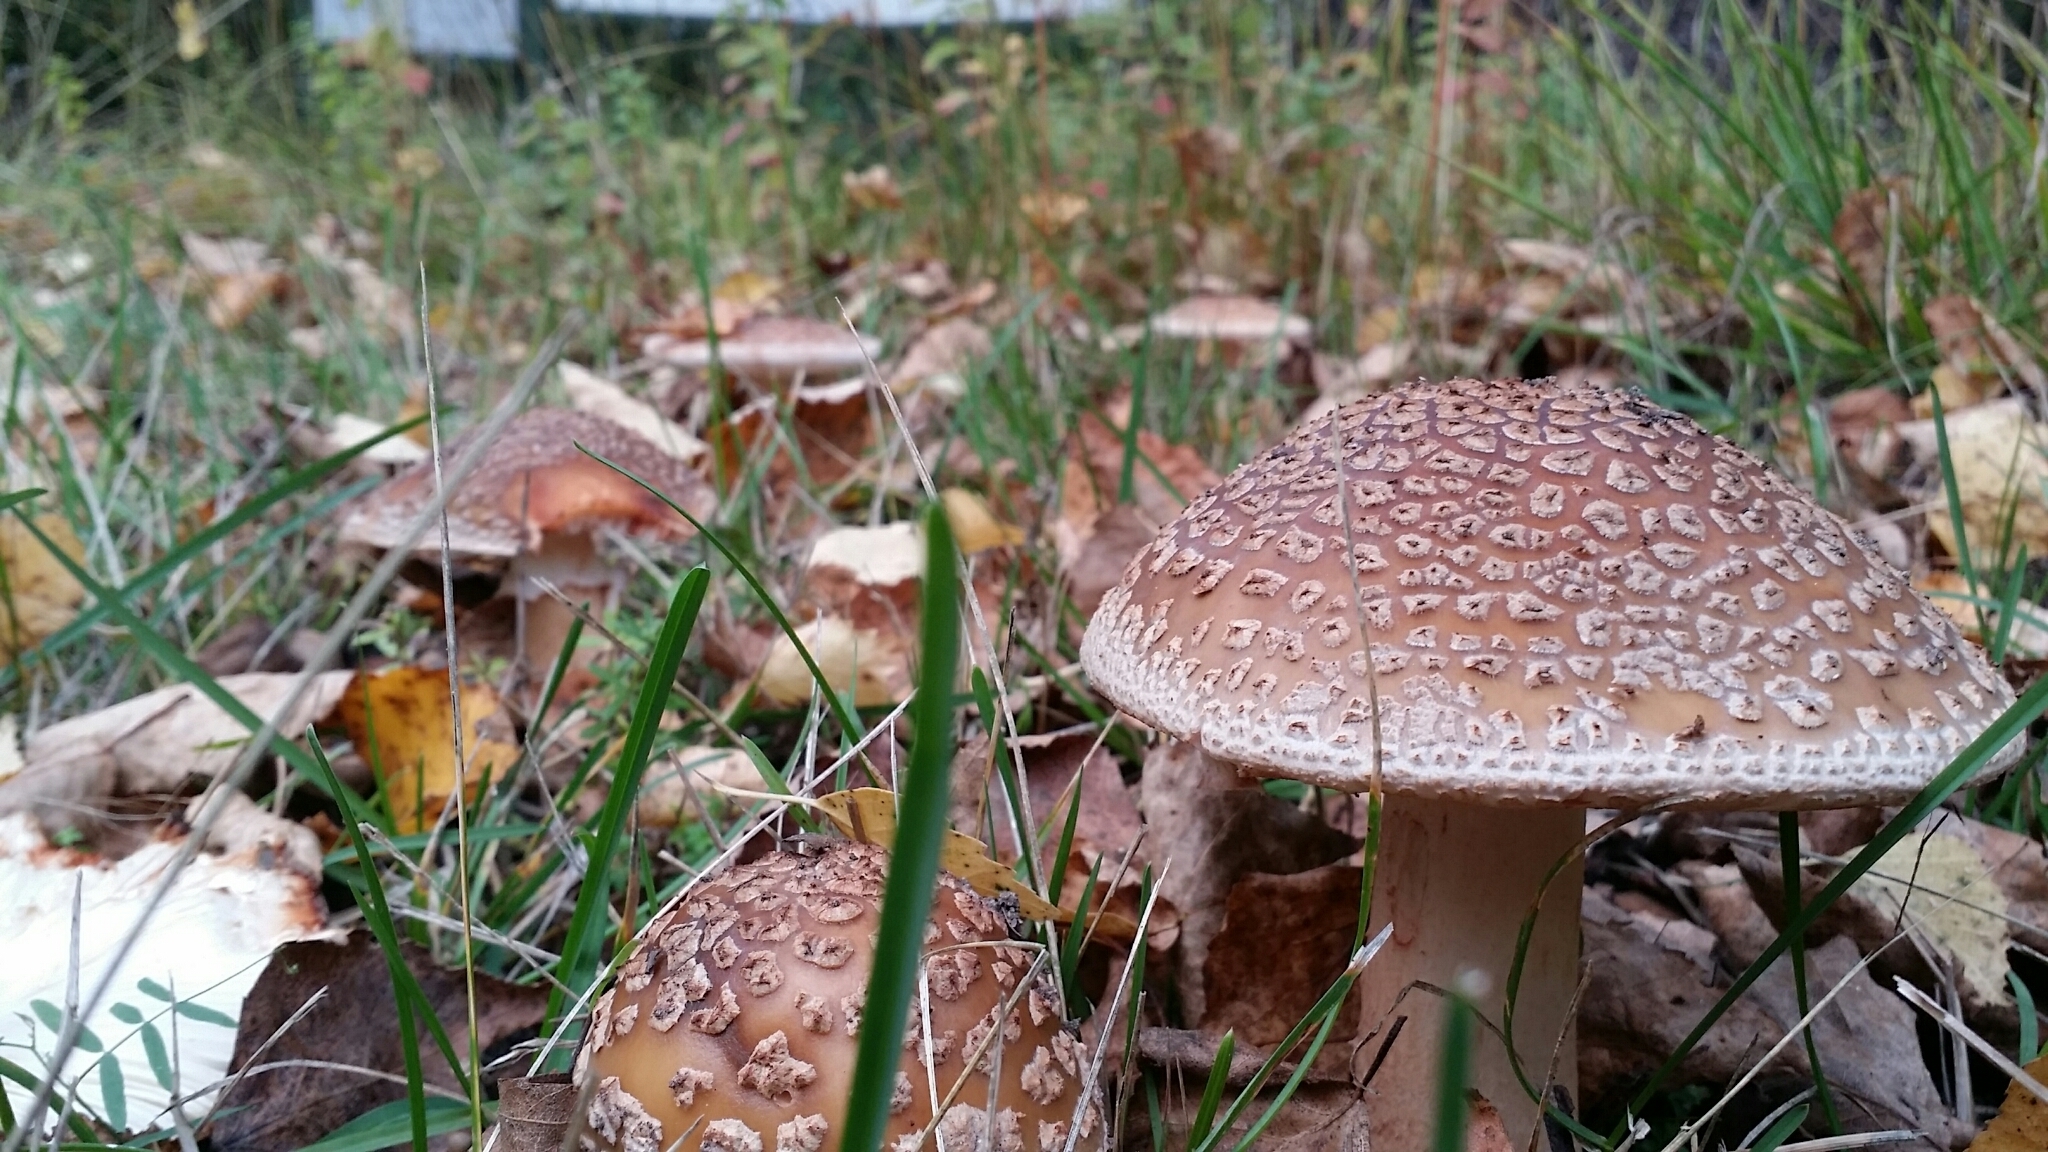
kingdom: Fungi
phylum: Basidiomycota
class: Agaricomycetes
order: Agaricales
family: Amanitaceae
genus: Amanita
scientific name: Amanita rubescens
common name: Blusher
